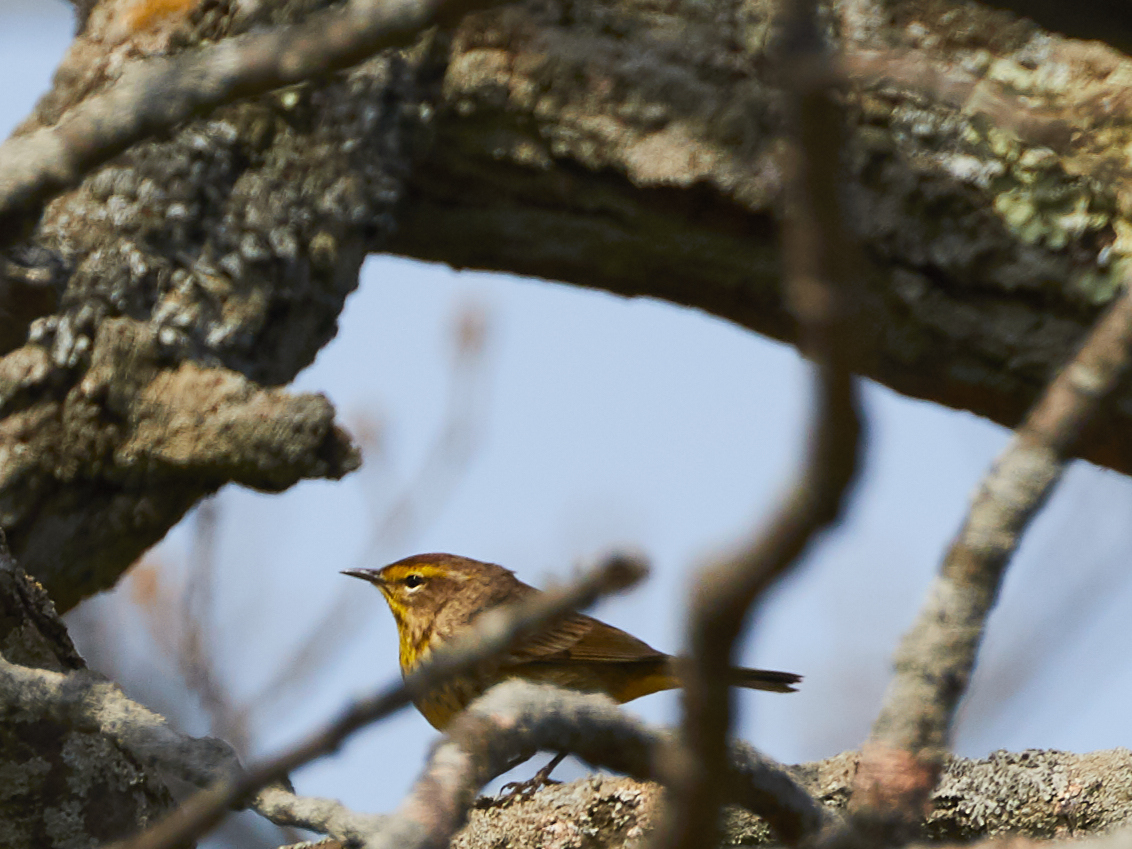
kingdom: Animalia
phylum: Chordata
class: Aves
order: Passeriformes
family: Parulidae
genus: Setophaga
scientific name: Setophaga palmarum
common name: Palm warbler
